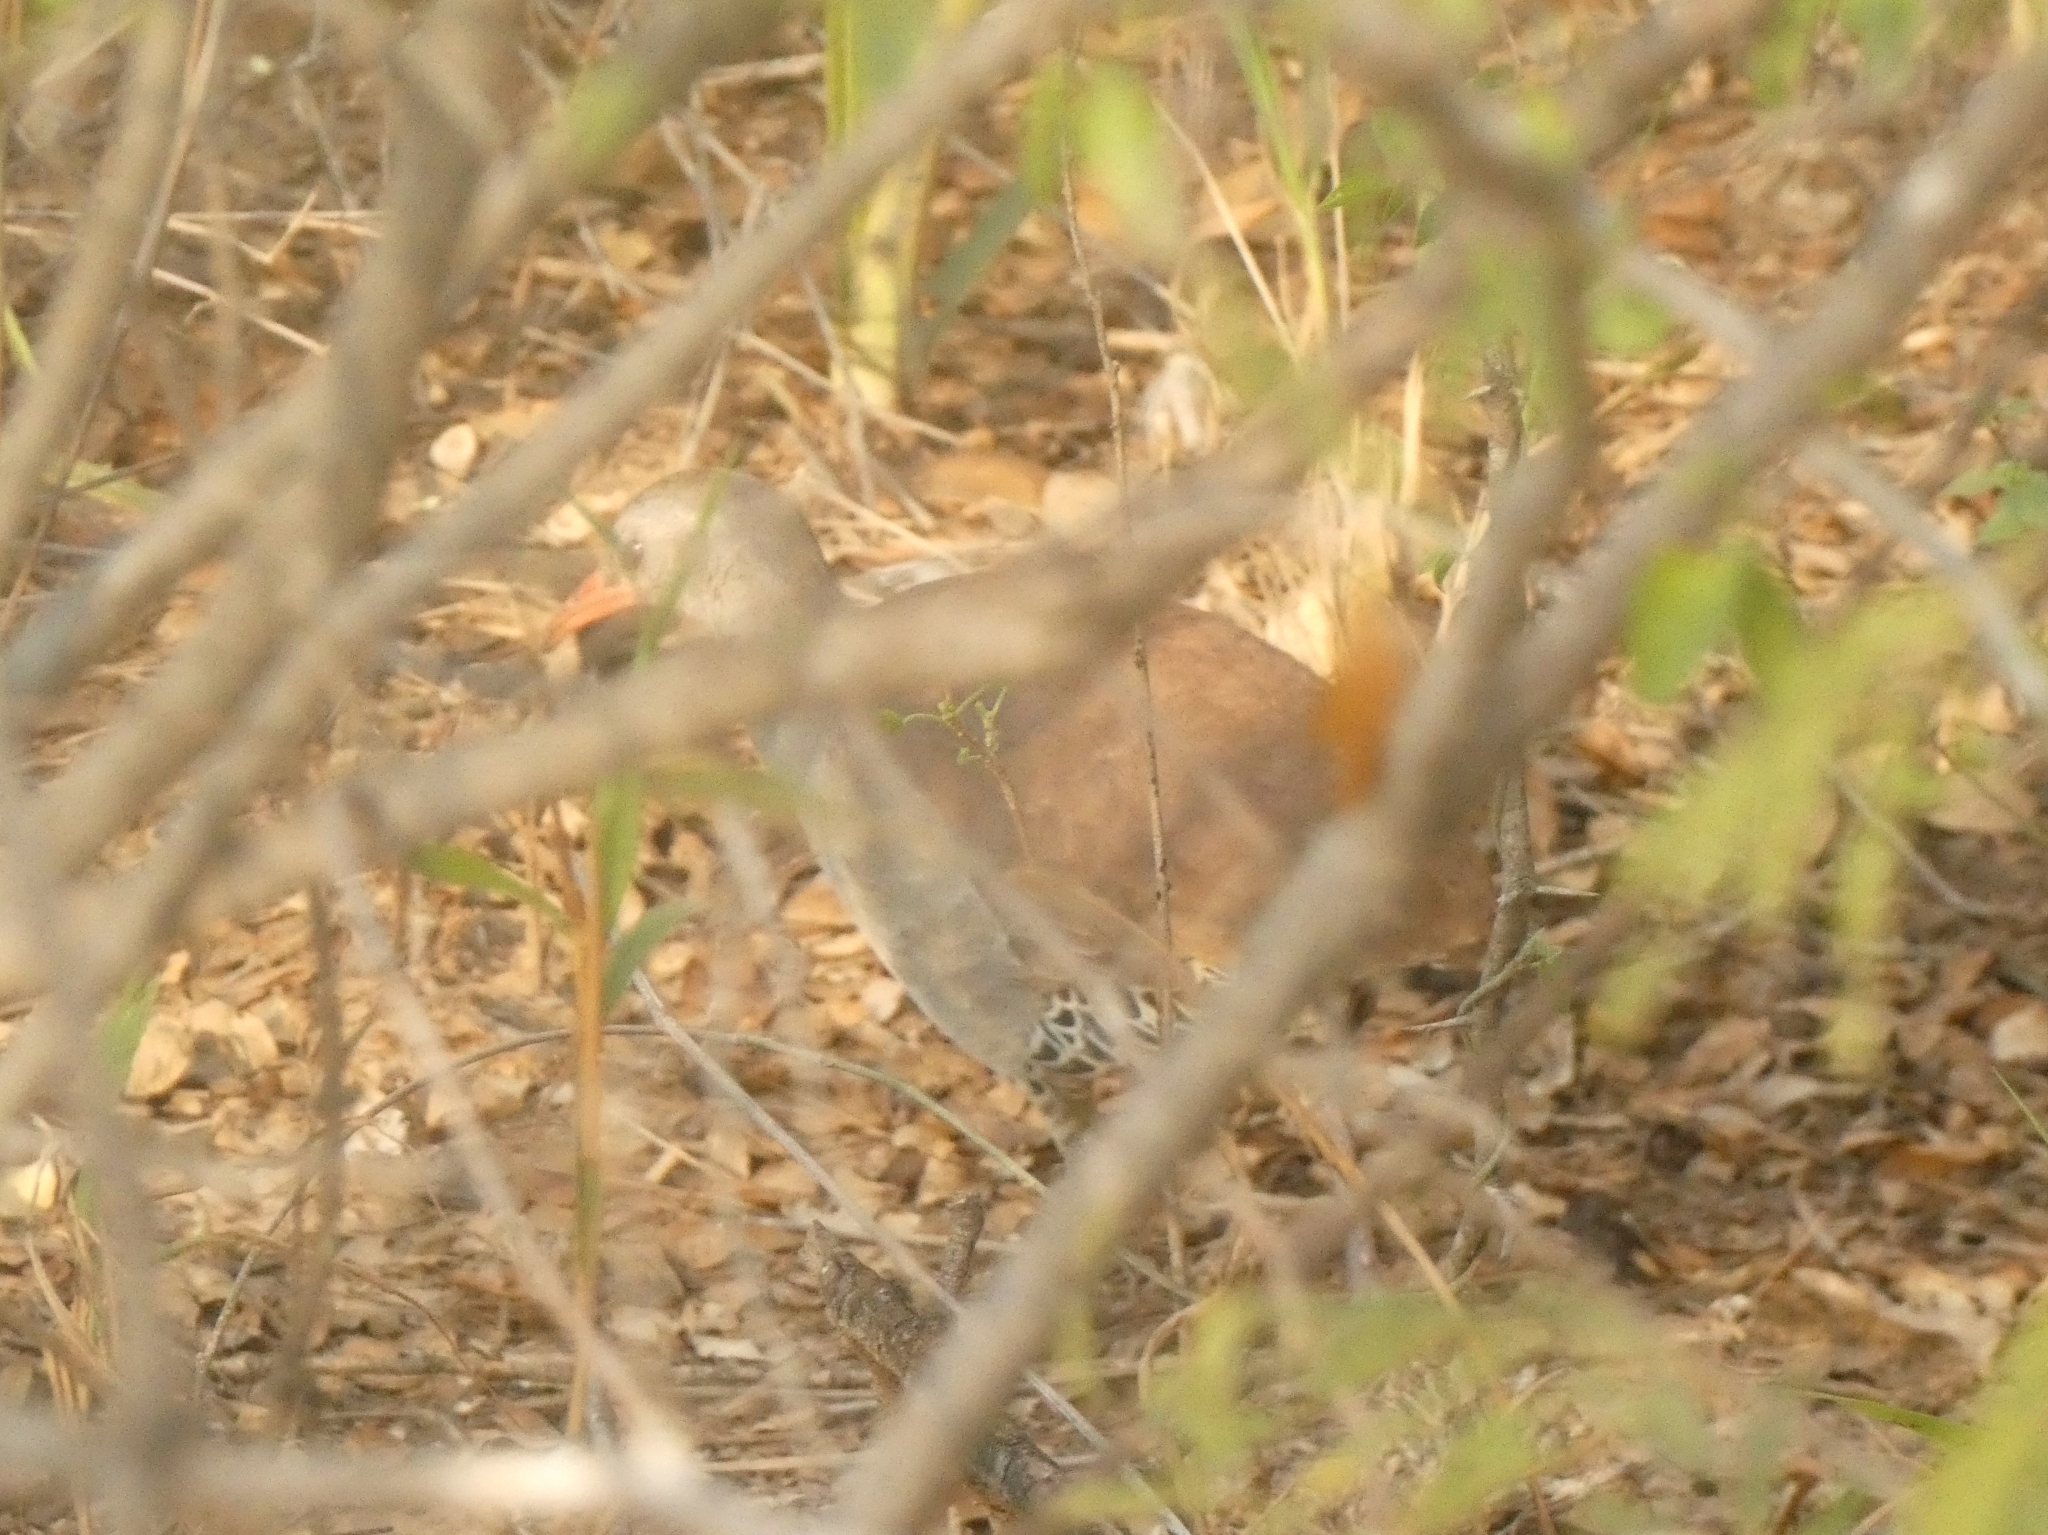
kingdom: Animalia
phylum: Chordata
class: Aves
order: Tinamiformes
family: Tinamidae
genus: Crypturellus
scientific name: Crypturellus tataupa
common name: Tataupa tinamou
